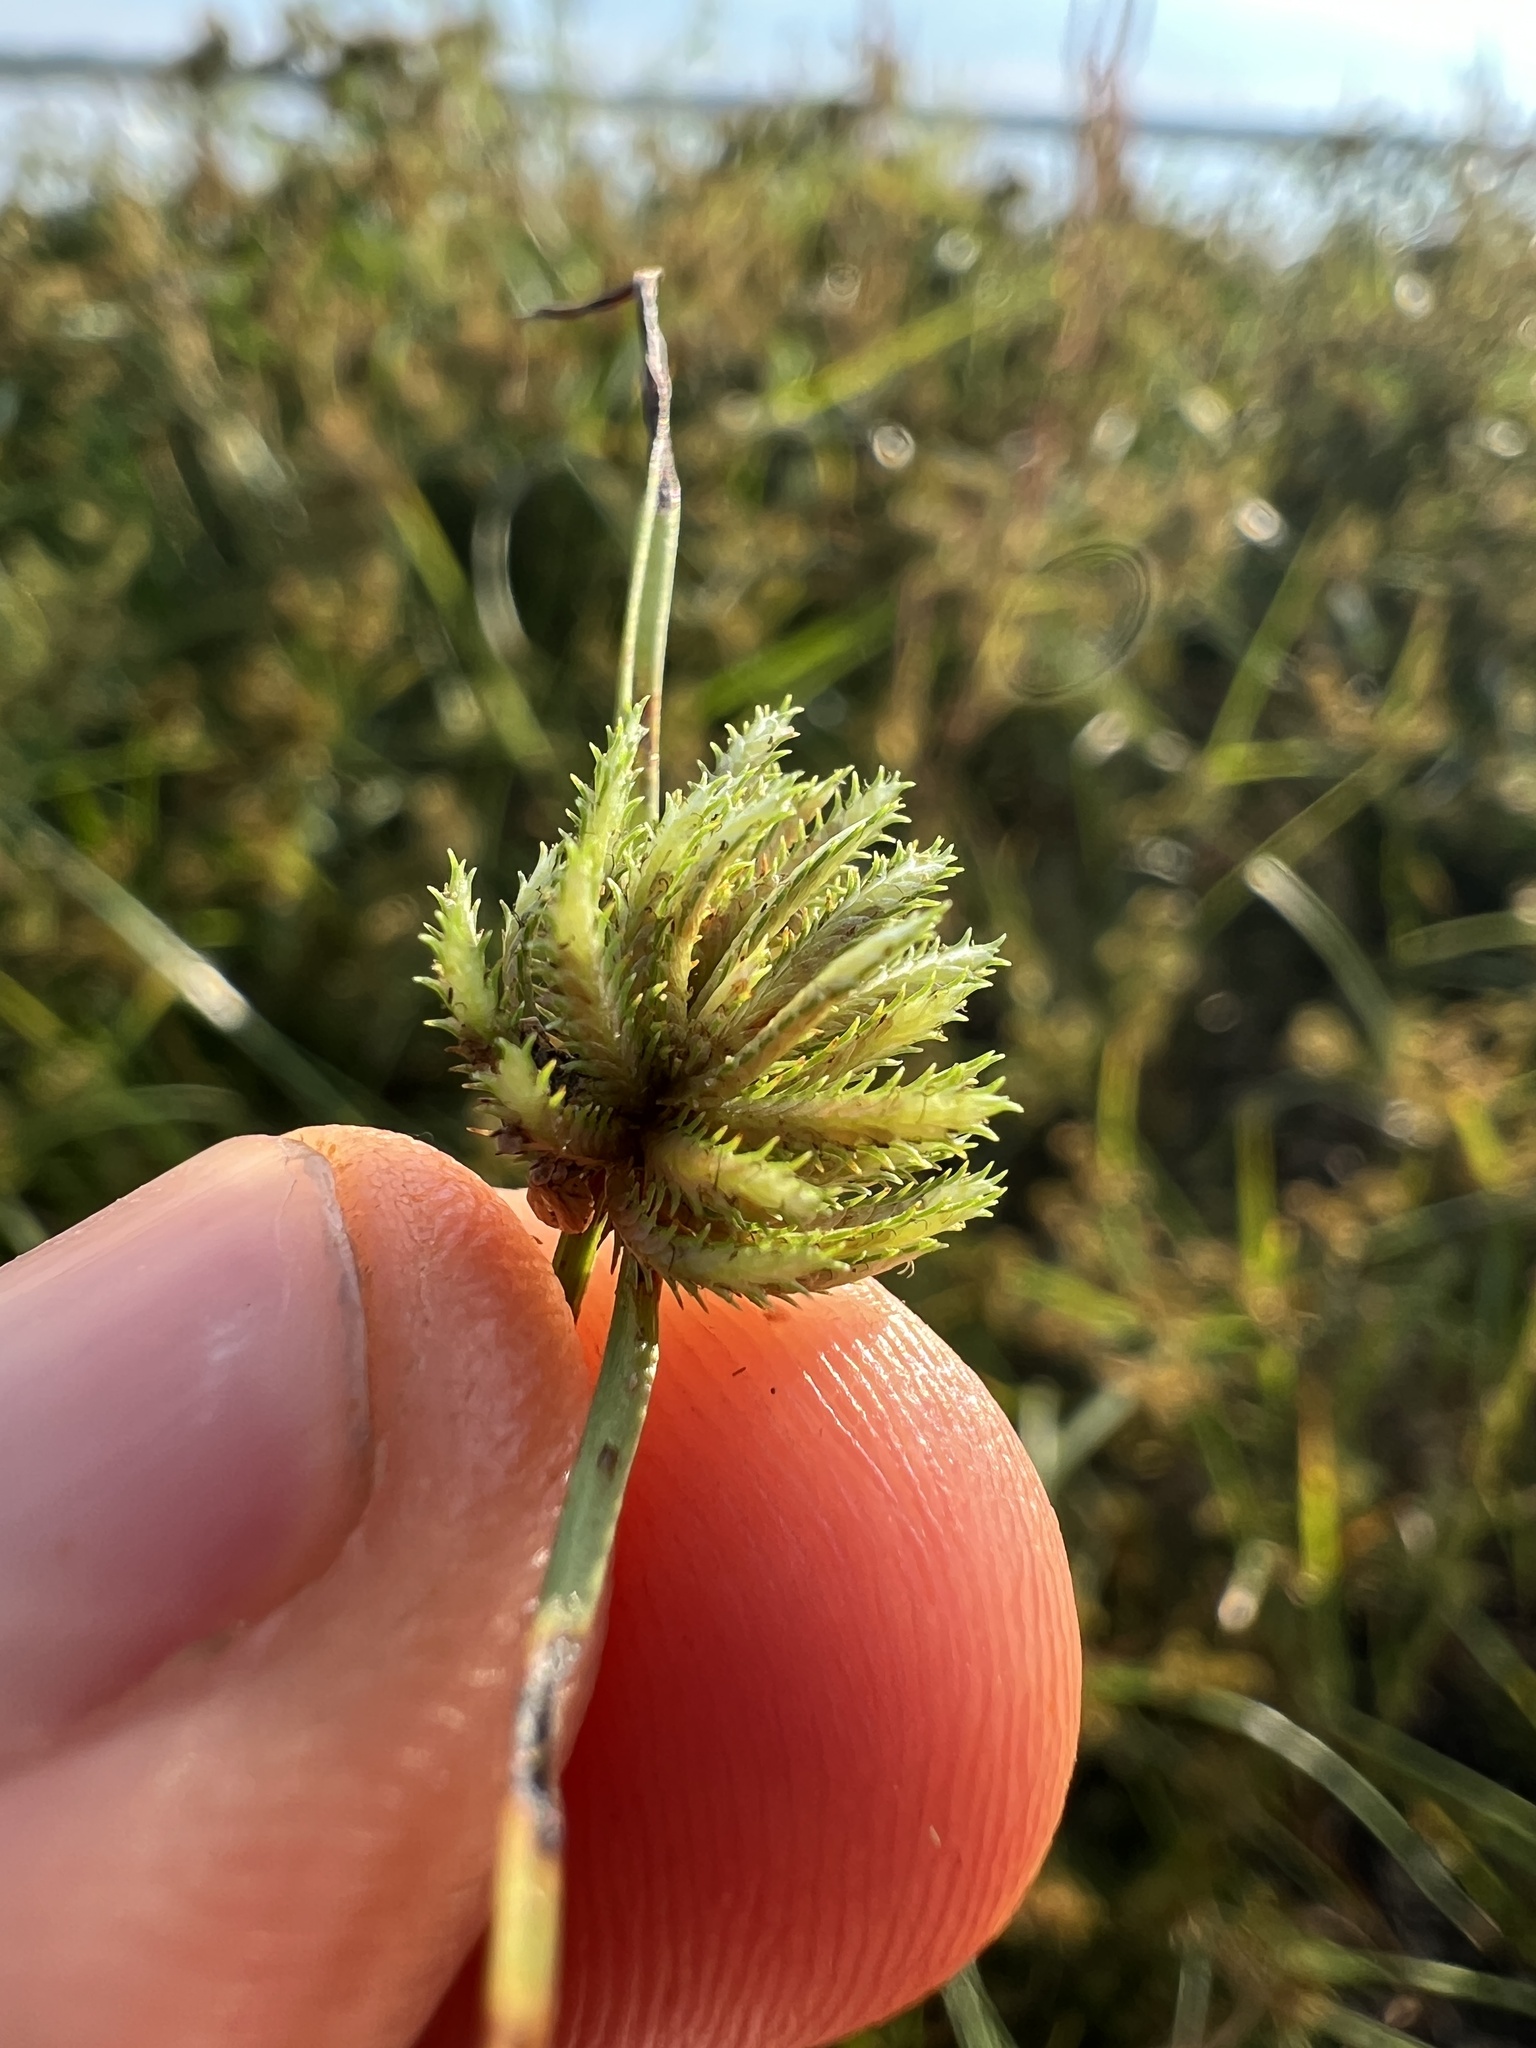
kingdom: Plantae
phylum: Tracheophyta
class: Liliopsida
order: Poales
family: Cyperaceae
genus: Cyperus
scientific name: Cyperus squarrosus
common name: Awned cyperus
